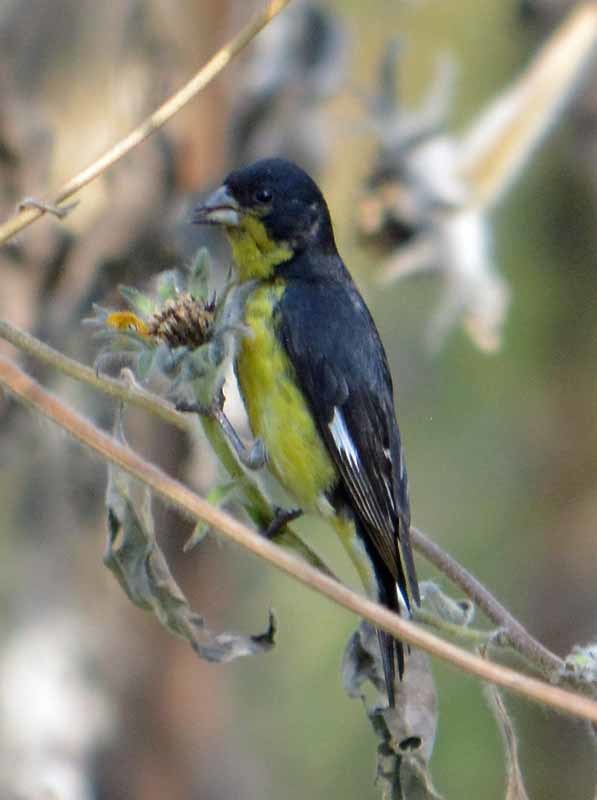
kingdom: Animalia
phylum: Chordata
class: Aves
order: Passeriformes
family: Fringillidae
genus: Spinus
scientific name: Spinus psaltria
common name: Lesser goldfinch
